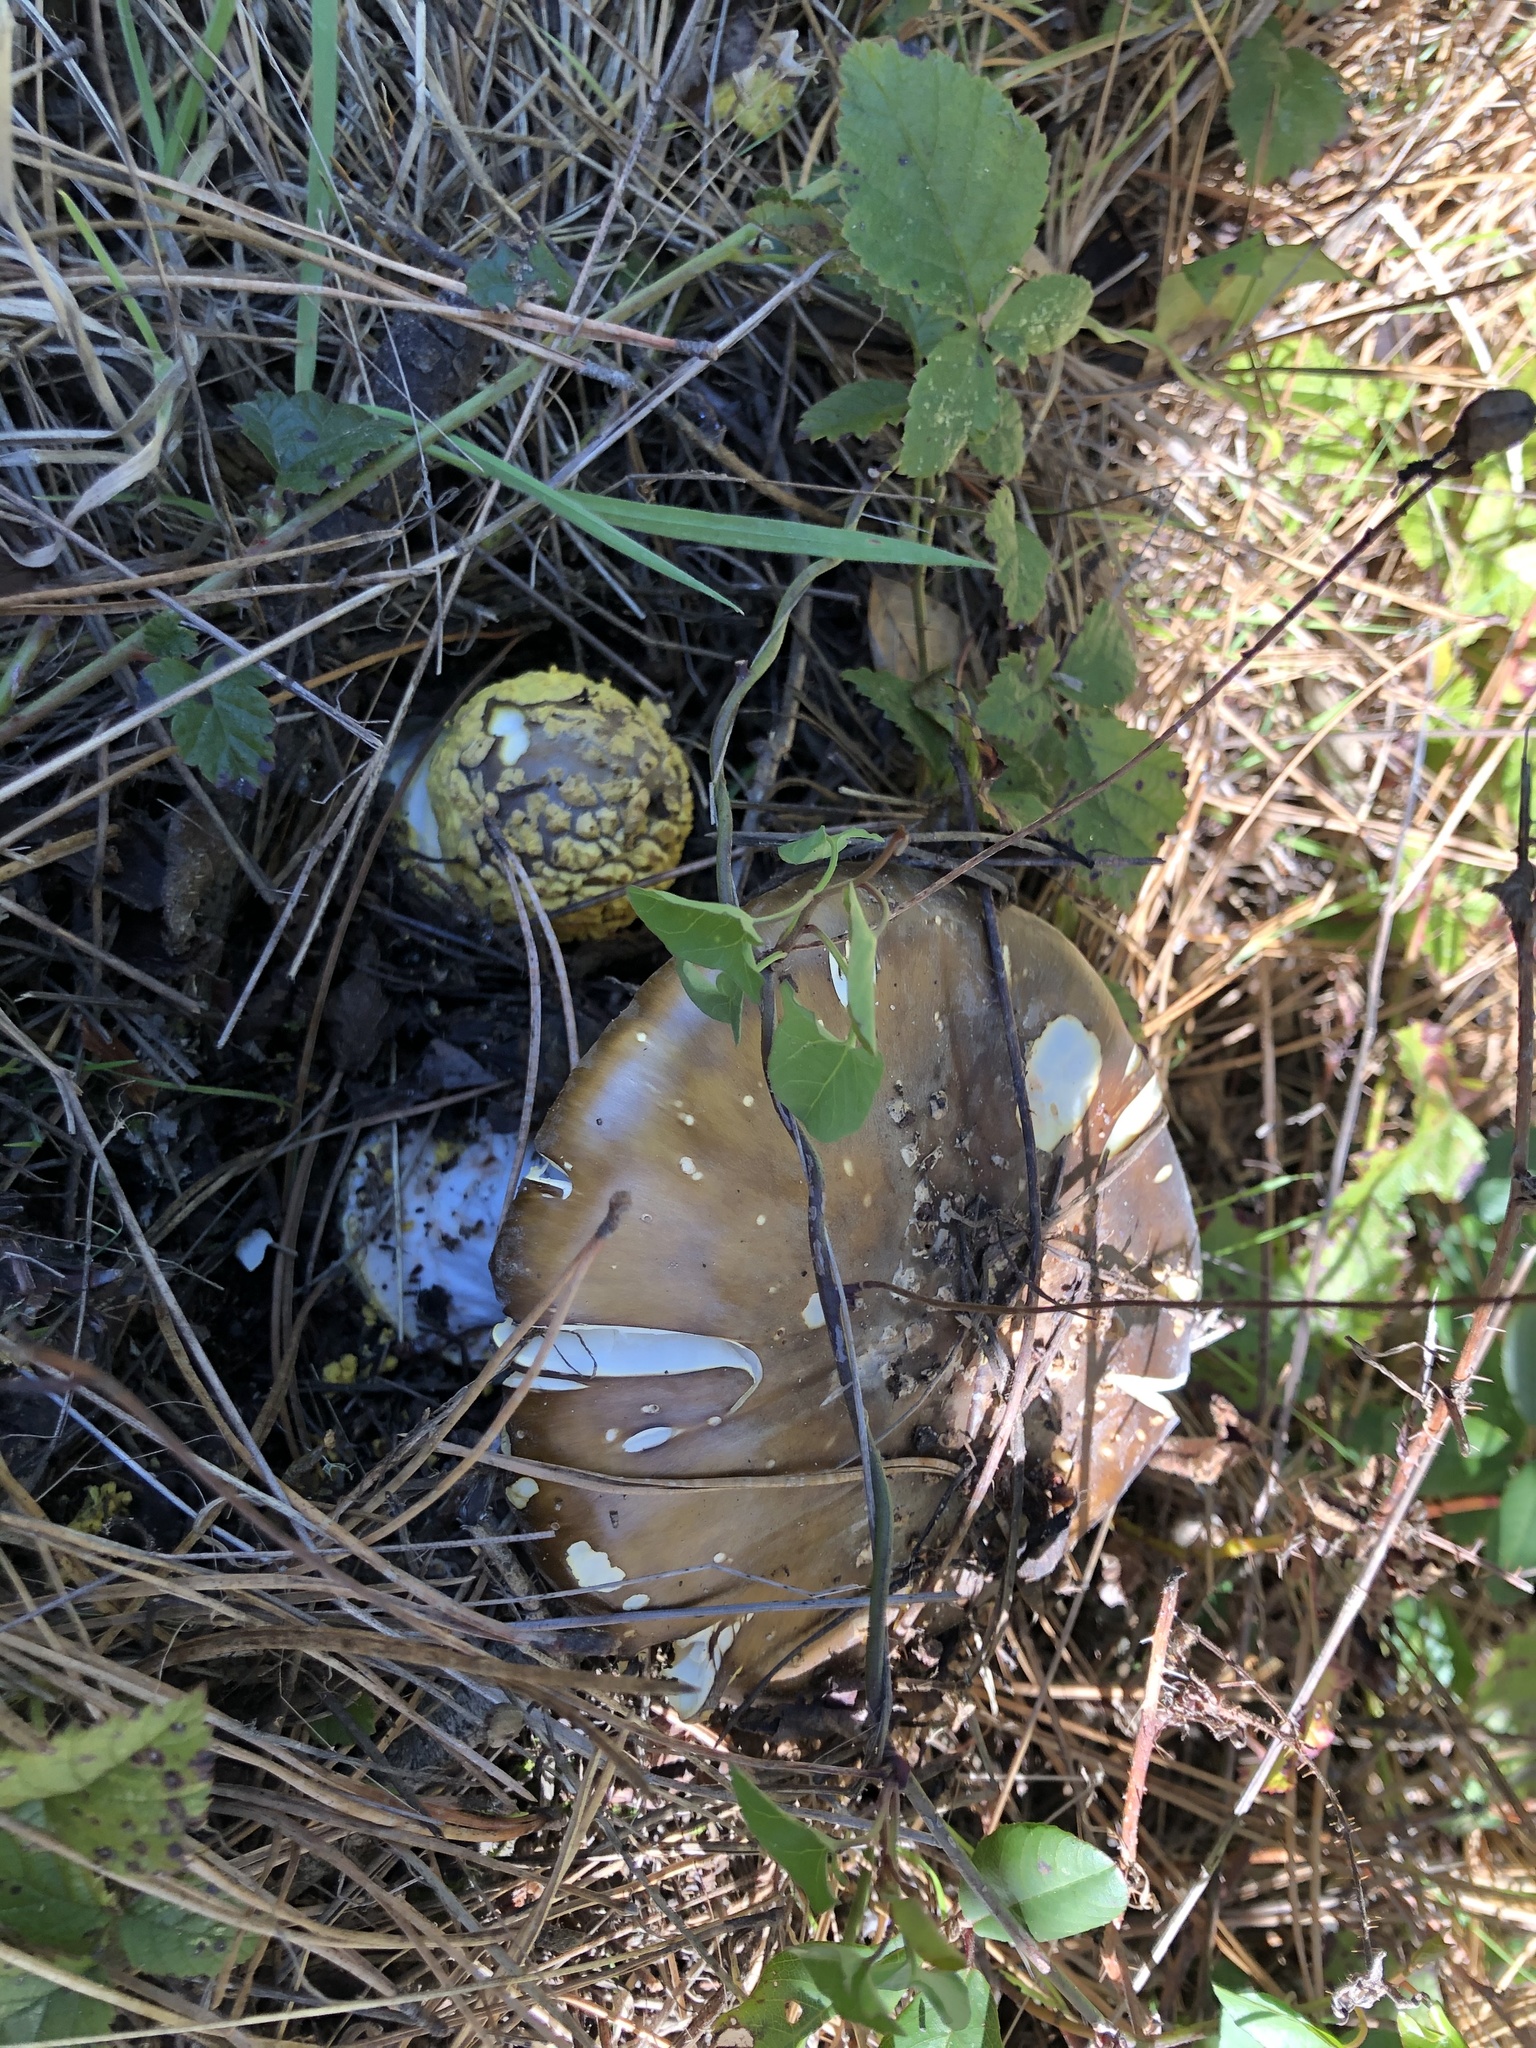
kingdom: Fungi
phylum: Basidiomycota
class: Agaricomycetes
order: Agaricales
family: Amanitaceae
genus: Amanita
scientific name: Amanita augusta
